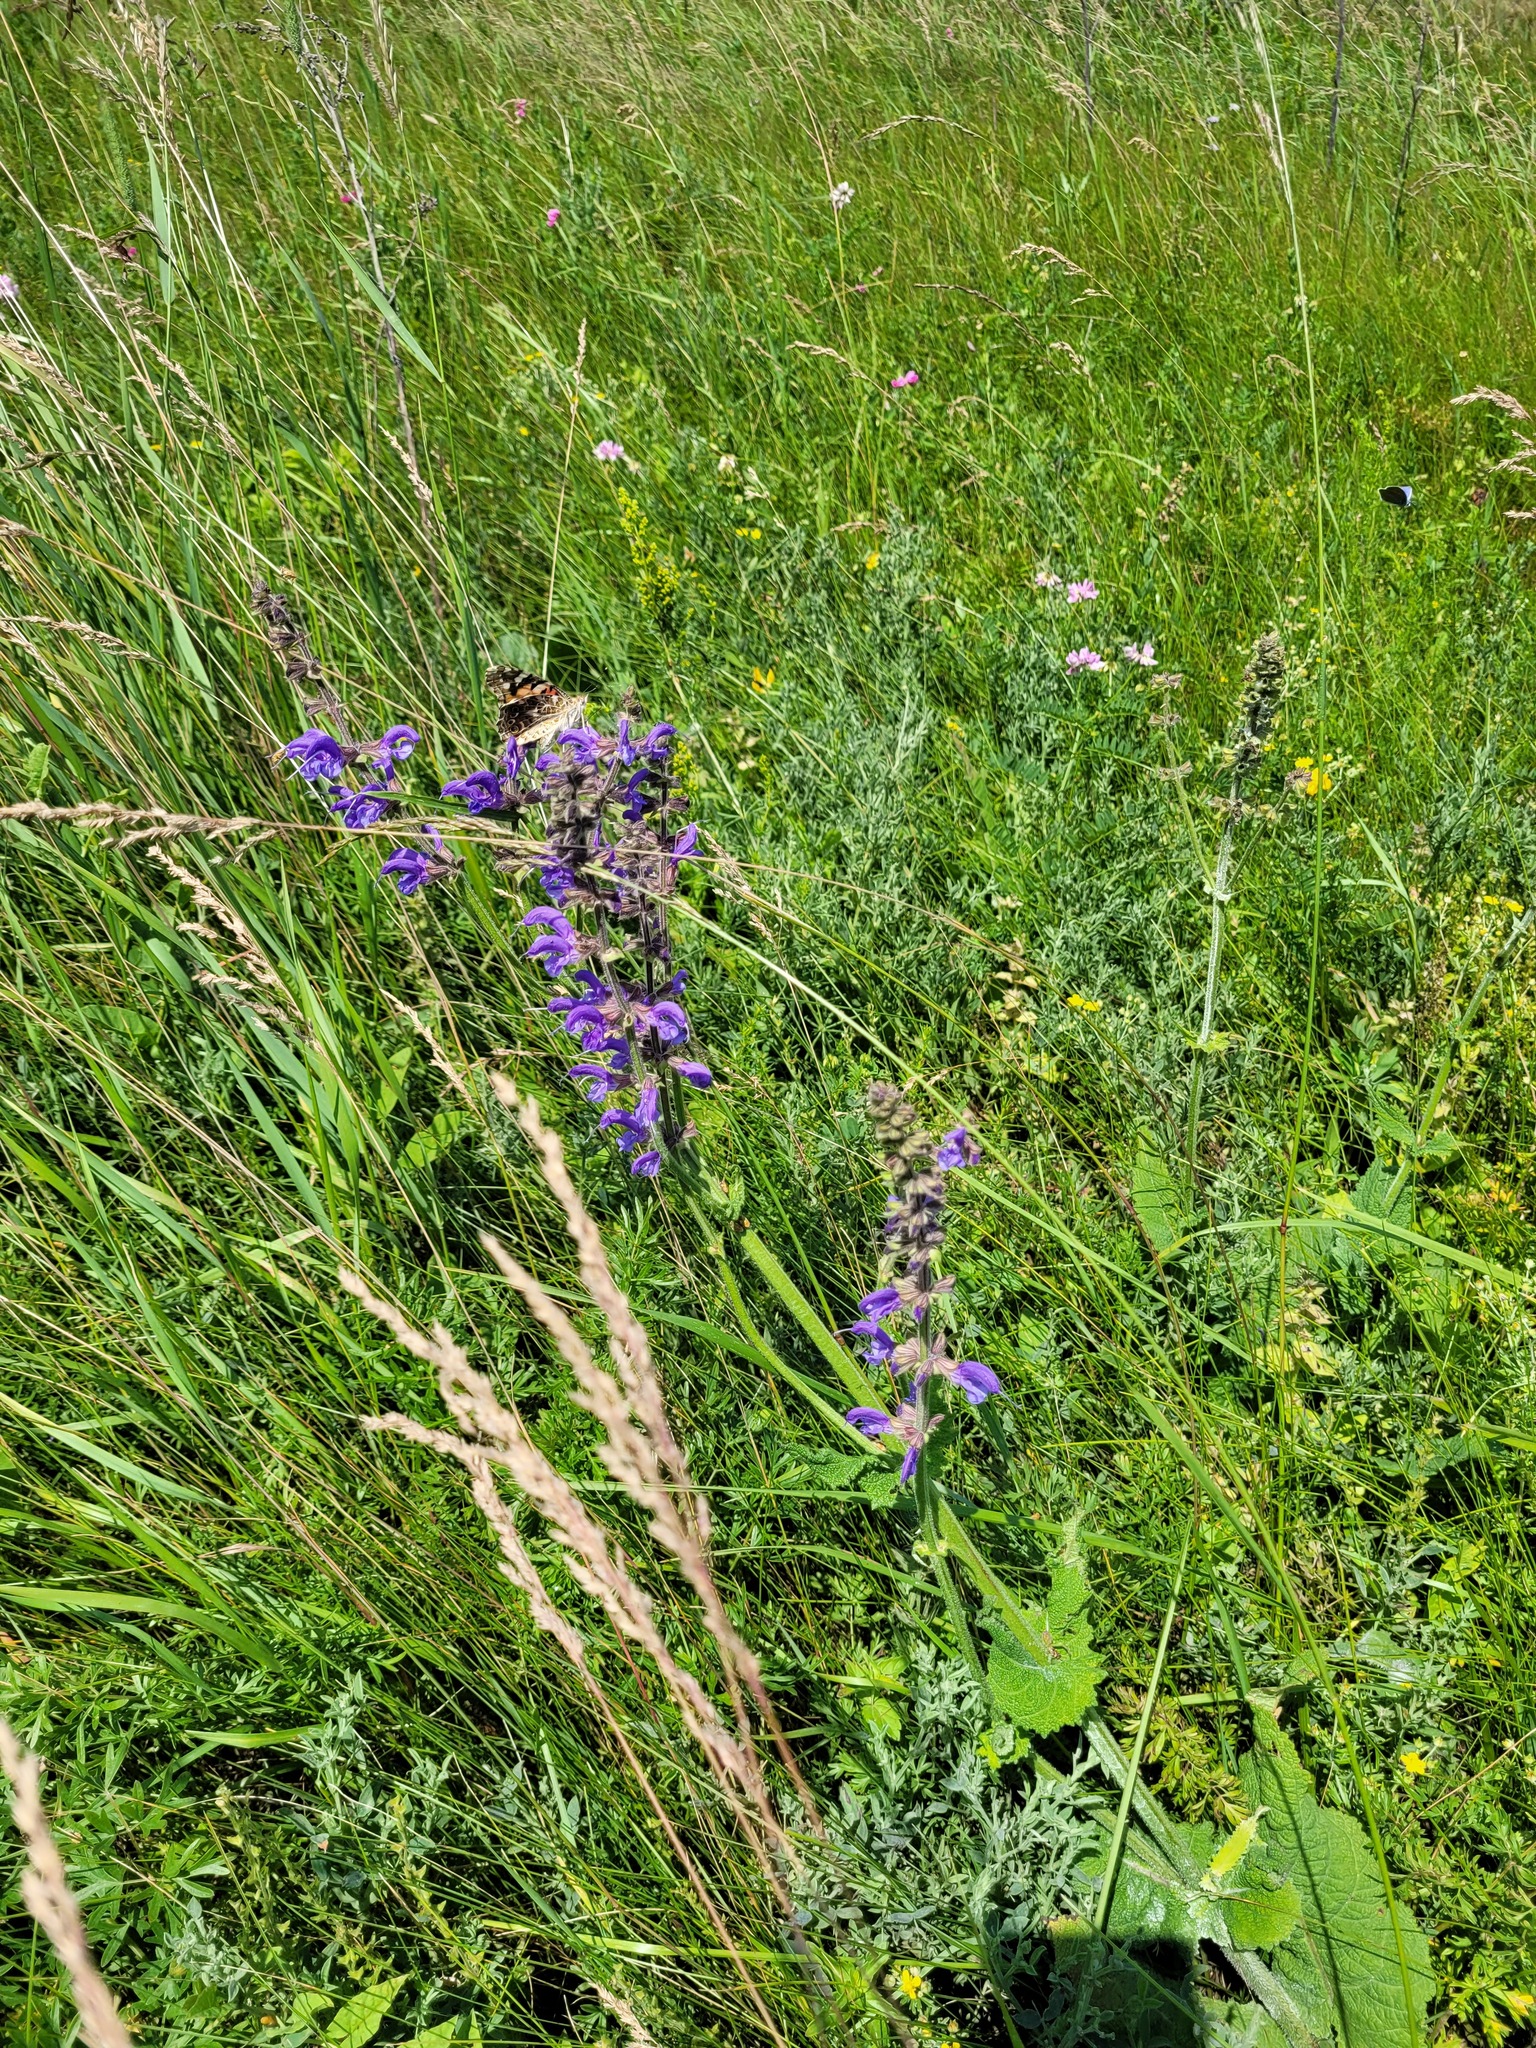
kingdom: Plantae
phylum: Tracheophyta
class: Magnoliopsida
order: Lamiales
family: Lamiaceae
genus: Salvia
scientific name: Salvia pratensis
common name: Meadow sage
